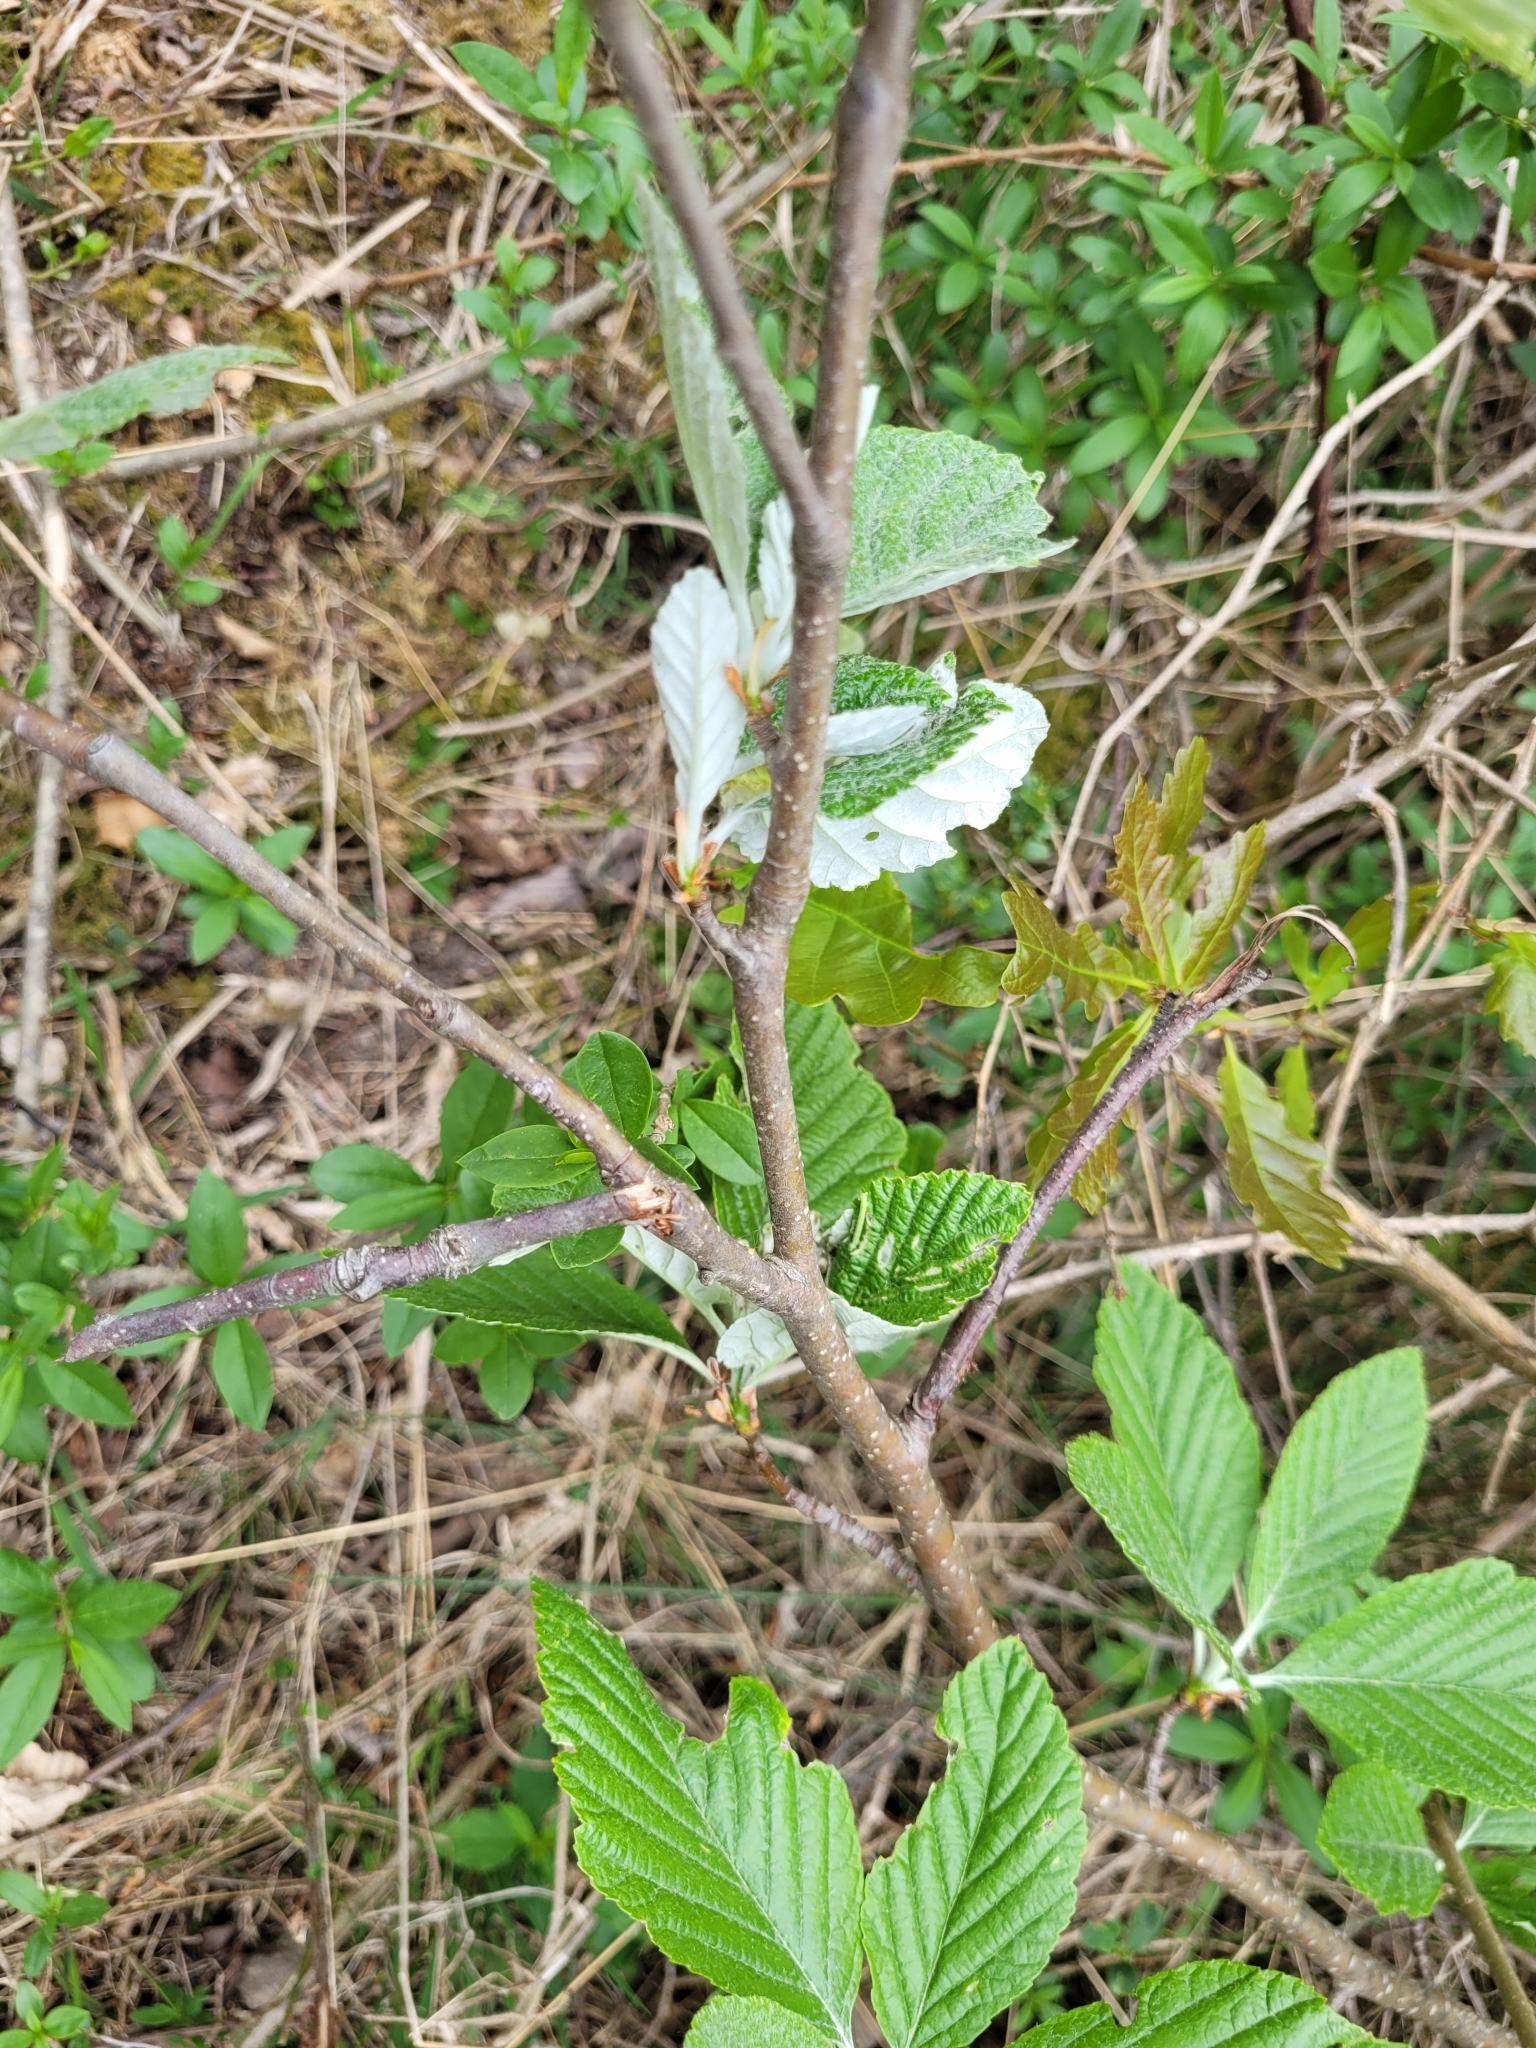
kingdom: Plantae
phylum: Tracheophyta
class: Magnoliopsida
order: Rosales
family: Rosaceae
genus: Aria
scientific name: Aria edulis
